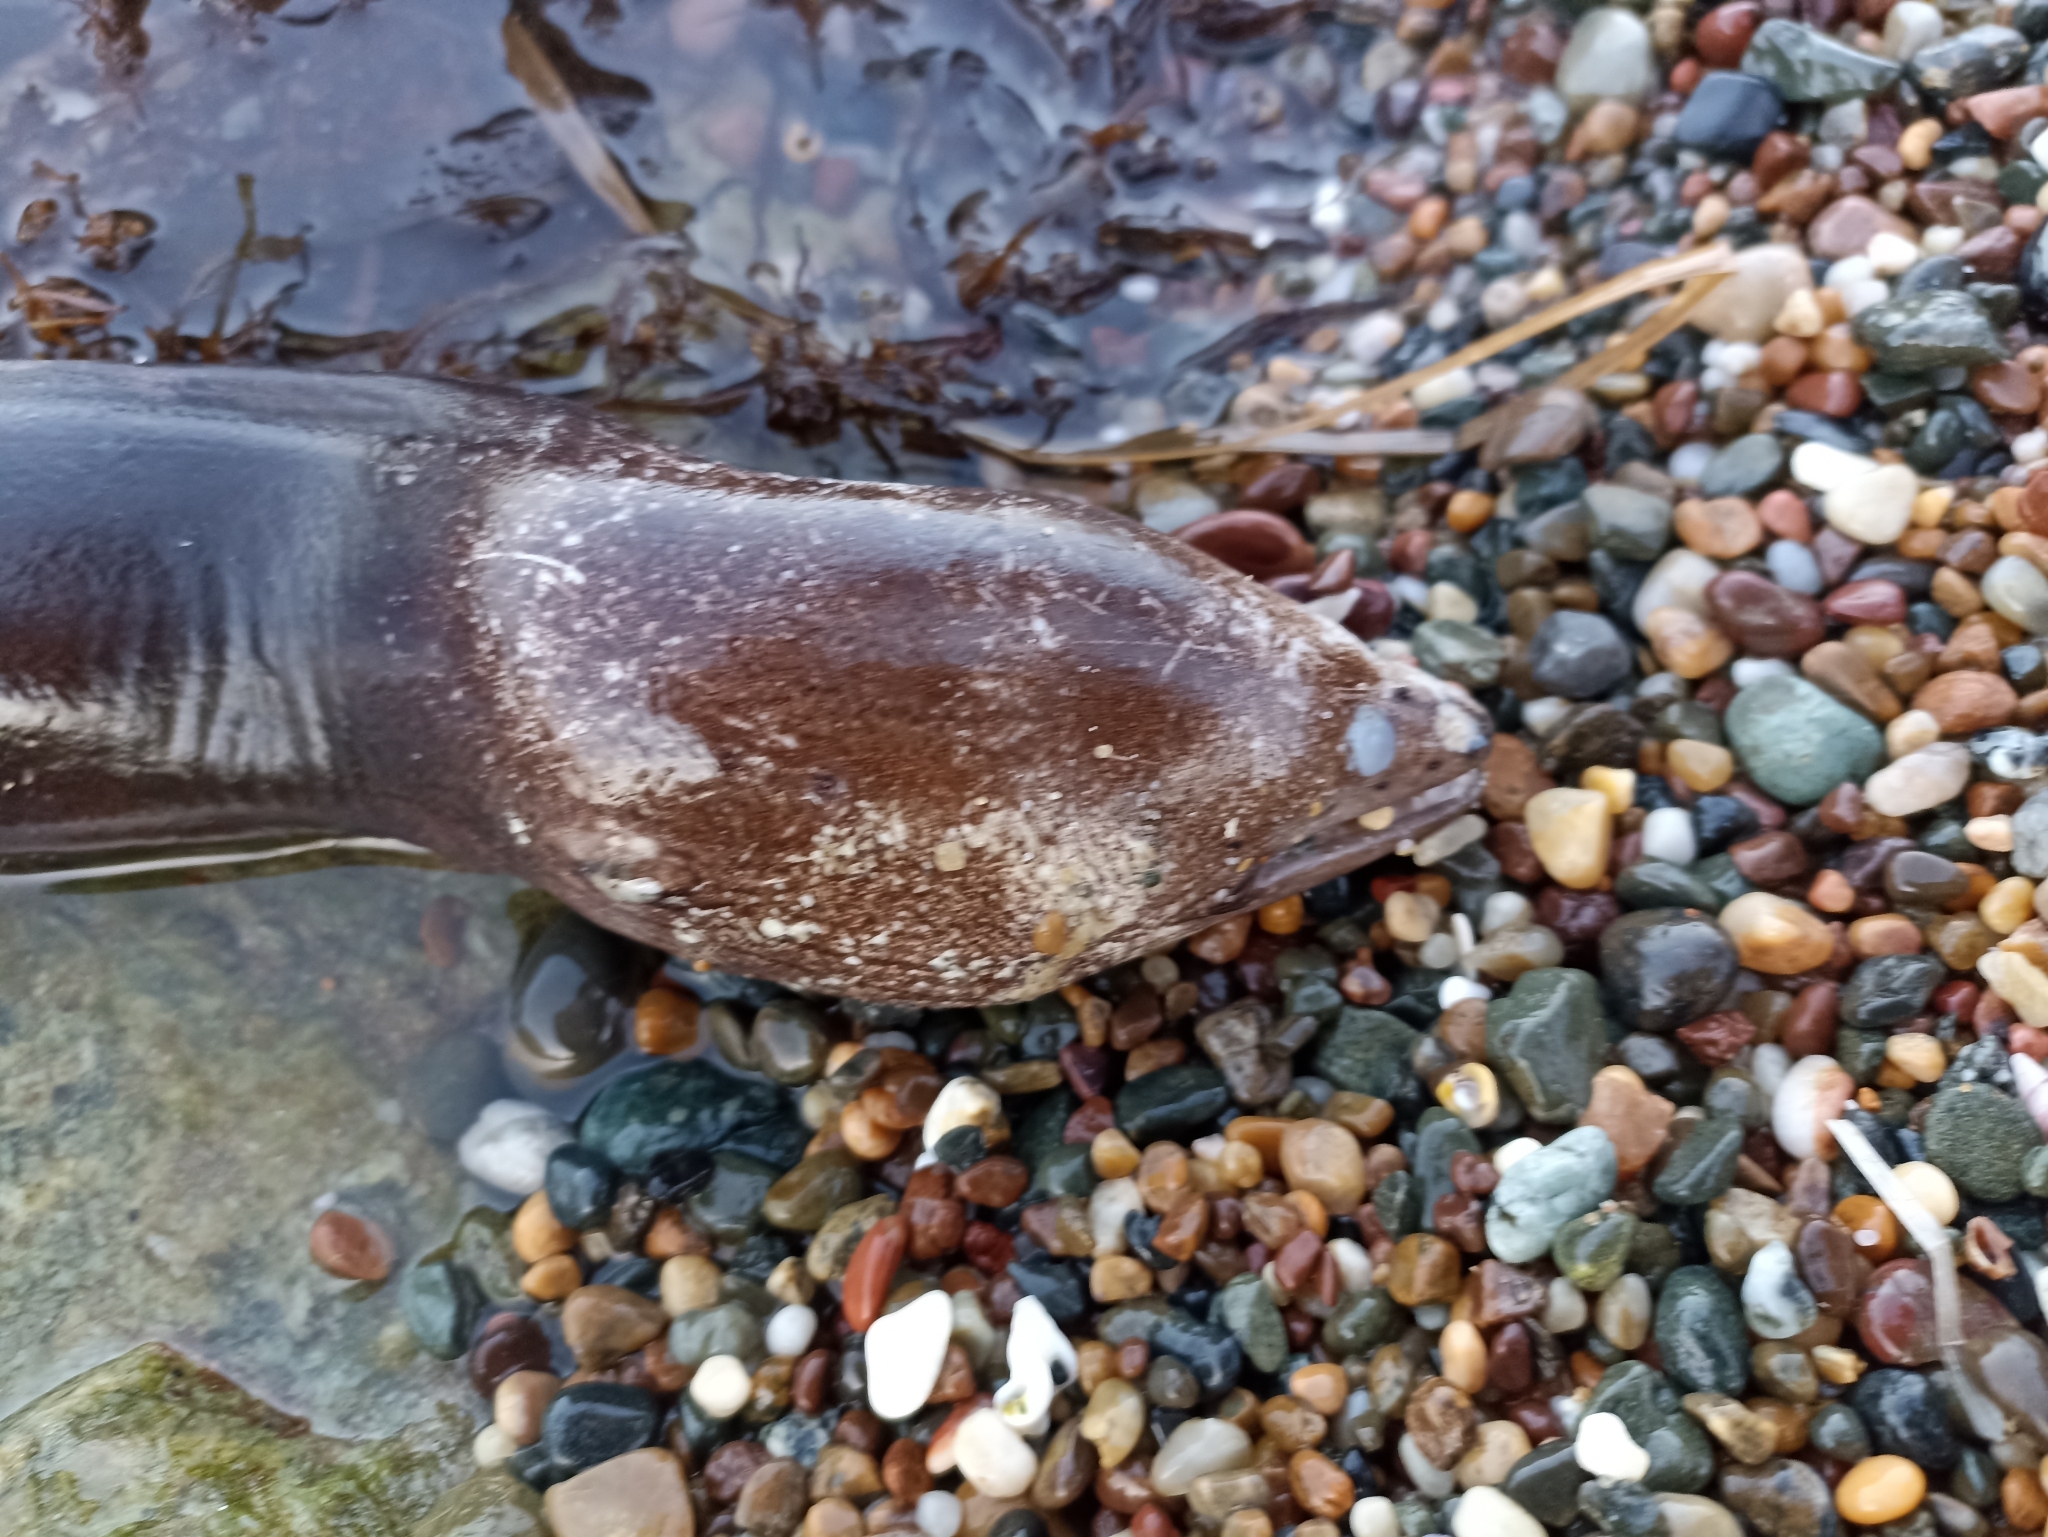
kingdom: Animalia
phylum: Chordata
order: Anguilliformes
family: Muraenidae
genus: Gymnothorax
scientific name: Gymnothorax prasinus
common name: Yellow moray
